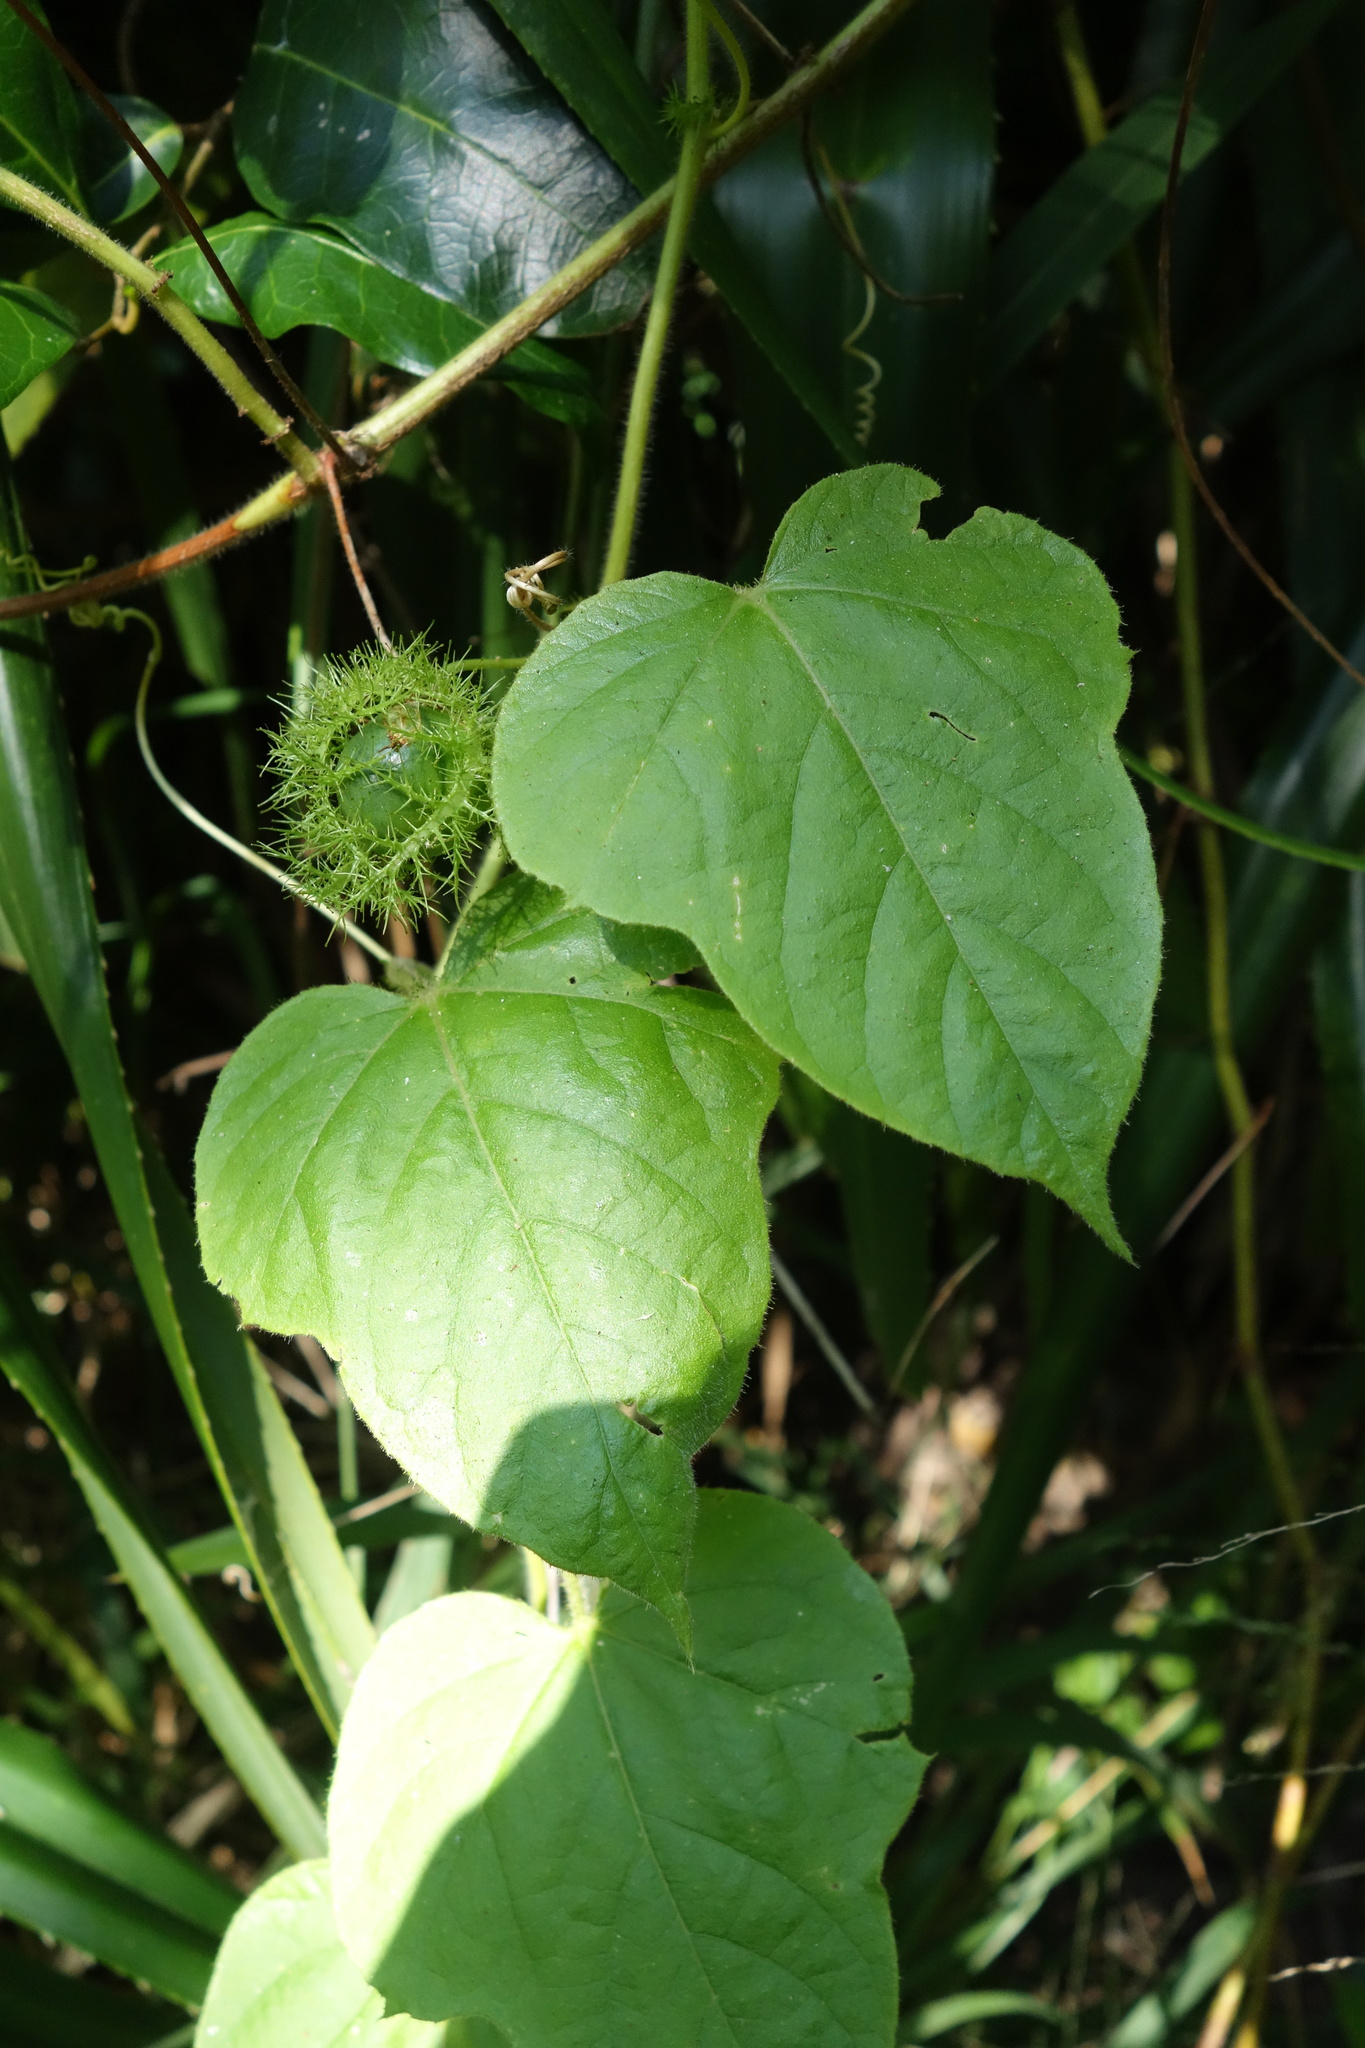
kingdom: Plantae
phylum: Tracheophyta
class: Magnoliopsida
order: Malpighiales
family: Passifloraceae
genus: Passiflora
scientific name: Passiflora vesicaria
